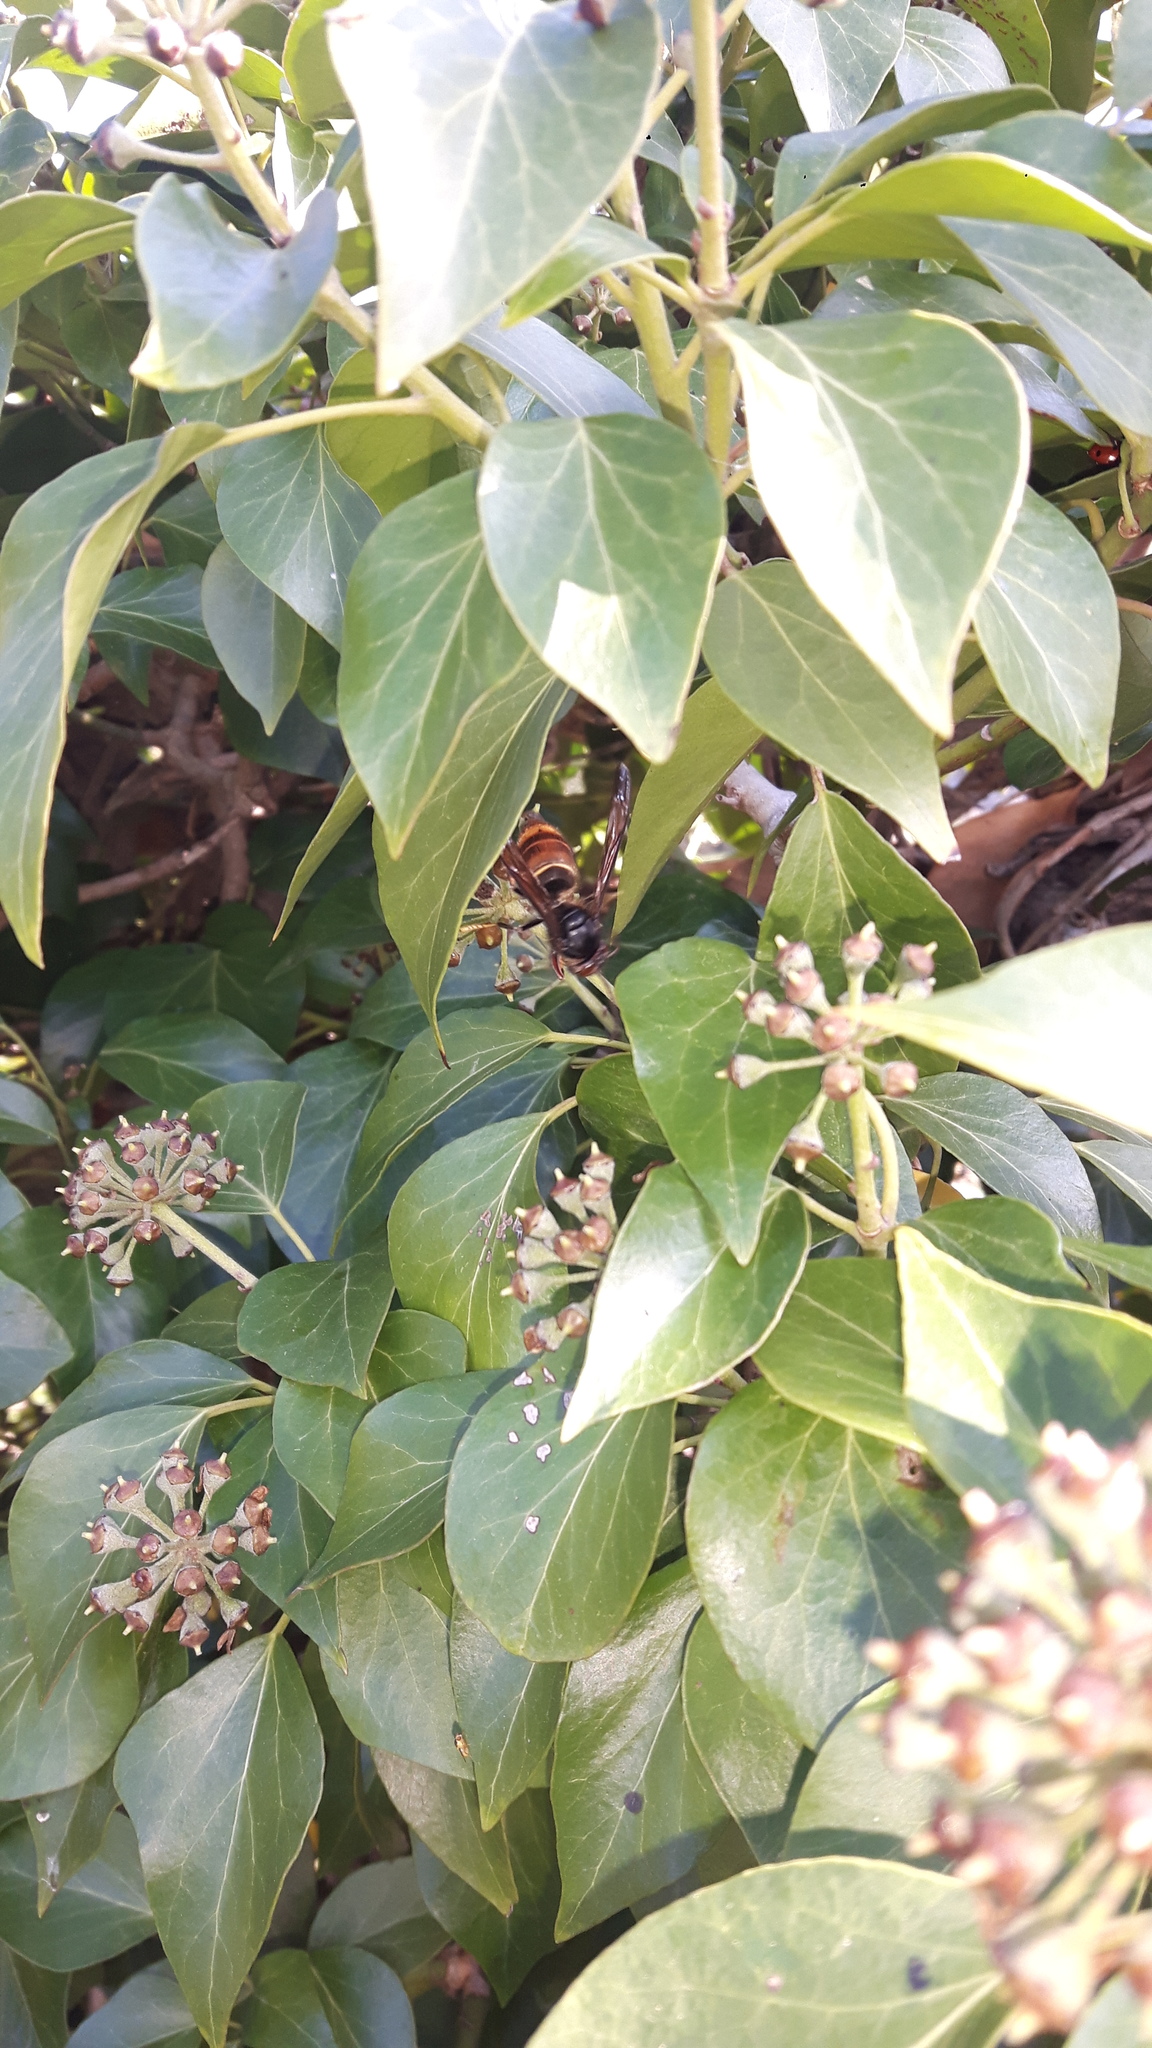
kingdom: Animalia
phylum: Arthropoda
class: Insecta
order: Hymenoptera
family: Vespidae
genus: Vespa
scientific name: Vespa velutina
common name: Asian hornet
